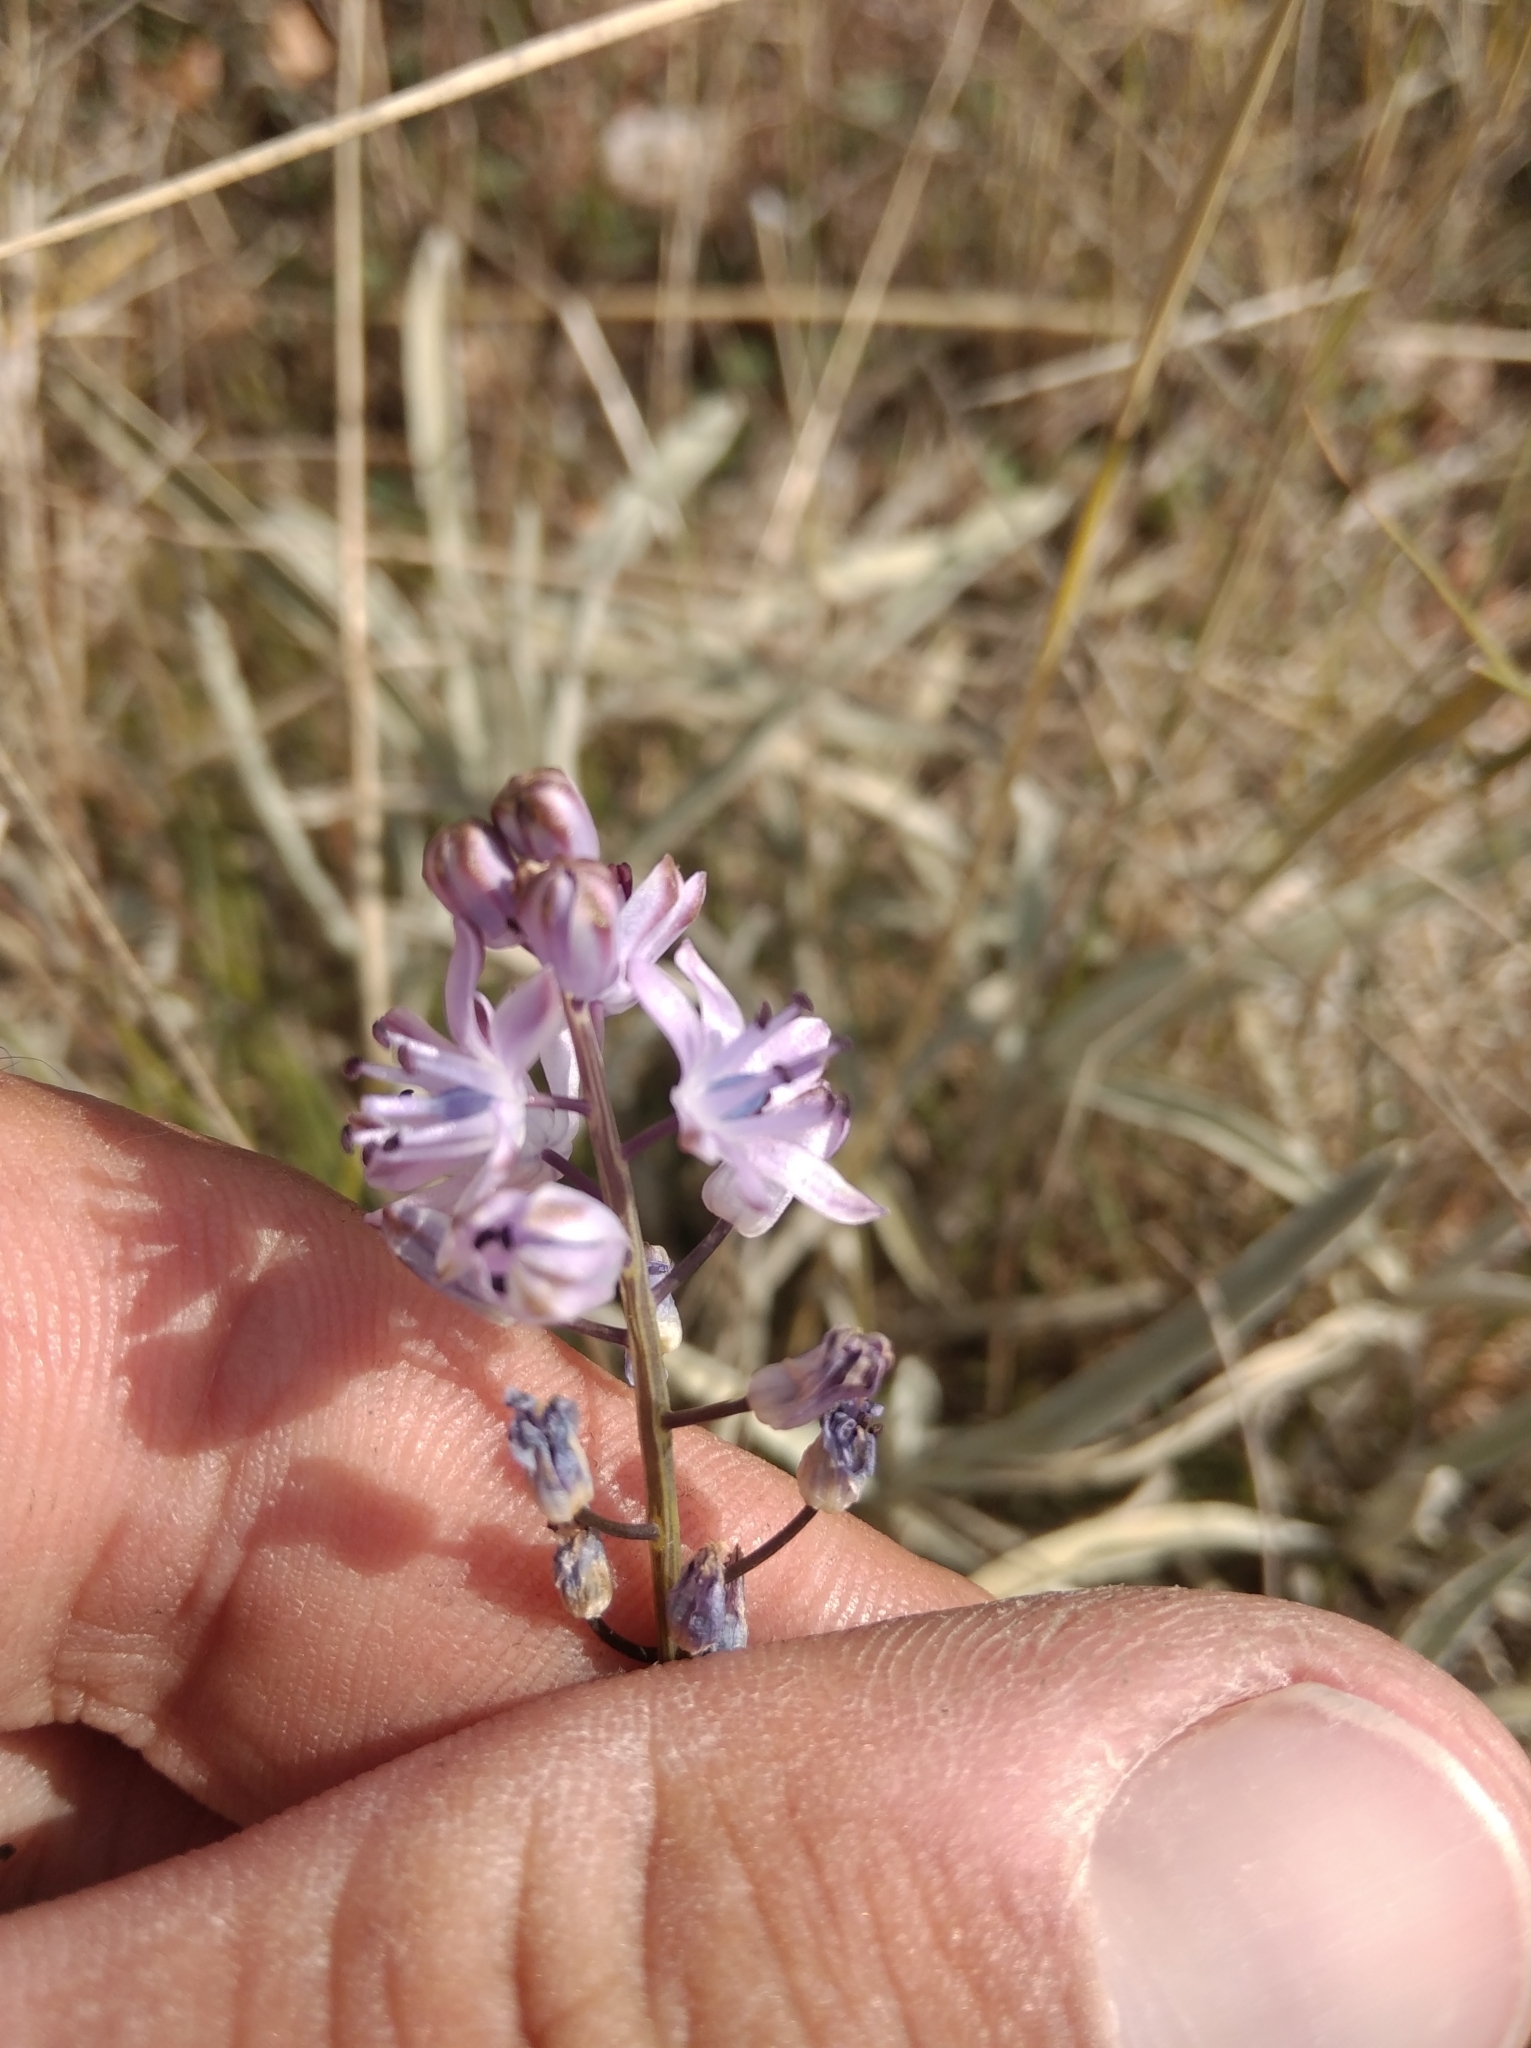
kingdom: Plantae
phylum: Tracheophyta
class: Liliopsida
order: Asparagales
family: Asparagaceae
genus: Prospero
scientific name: Prospero autumnale
